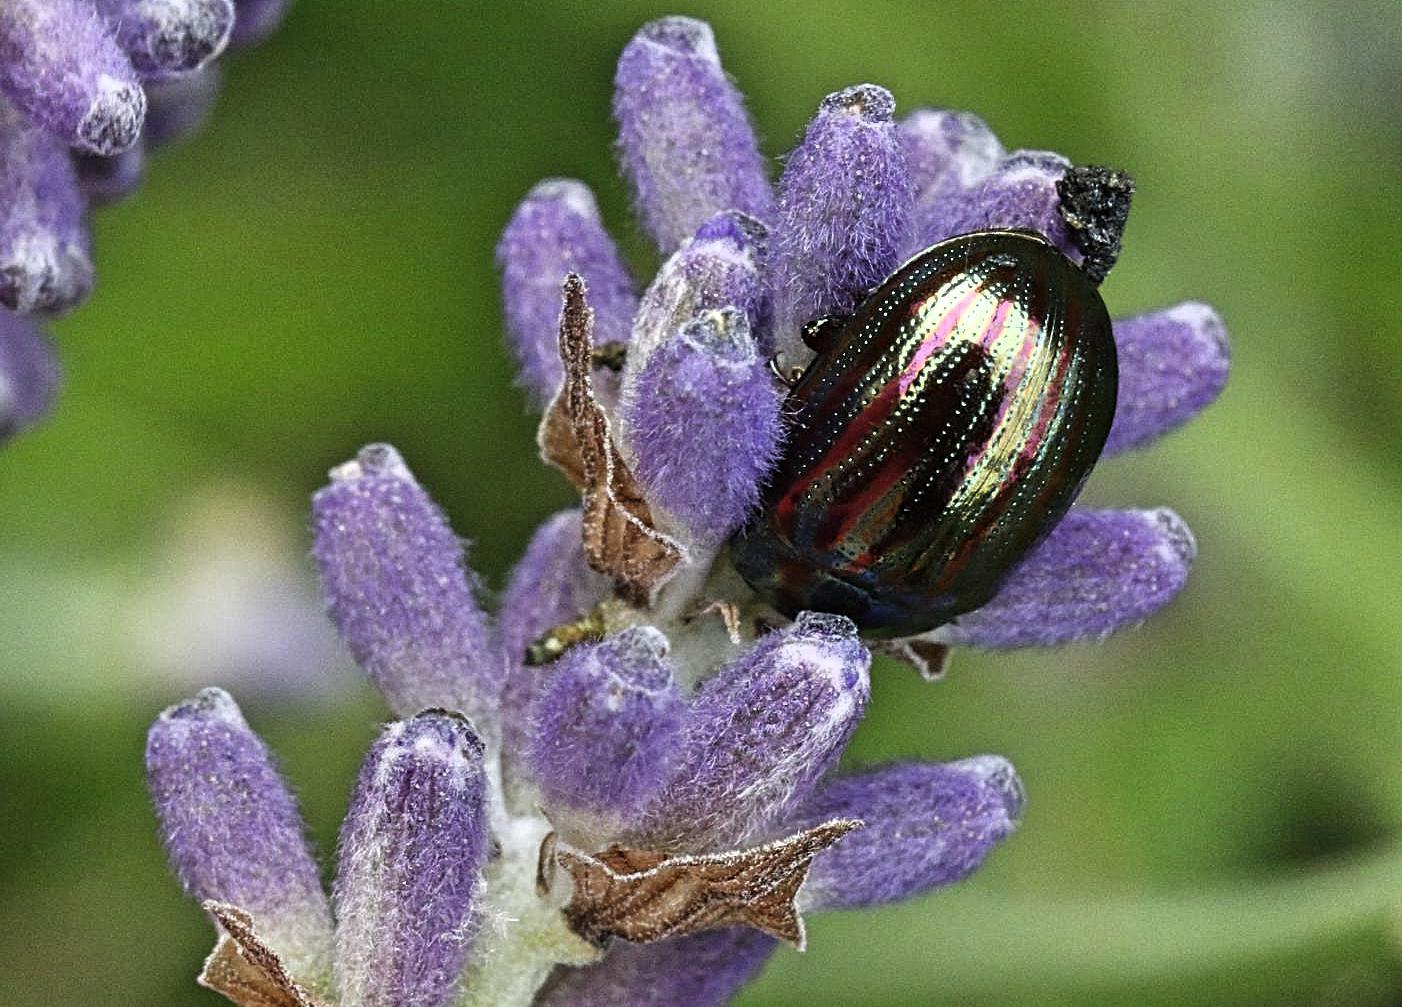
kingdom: Animalia
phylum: Arthropoda
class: Insecta
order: Coleoptera
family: Chrysomelidae
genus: Chrysolina
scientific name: Chrysolina americana
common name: Rosemary beetle
